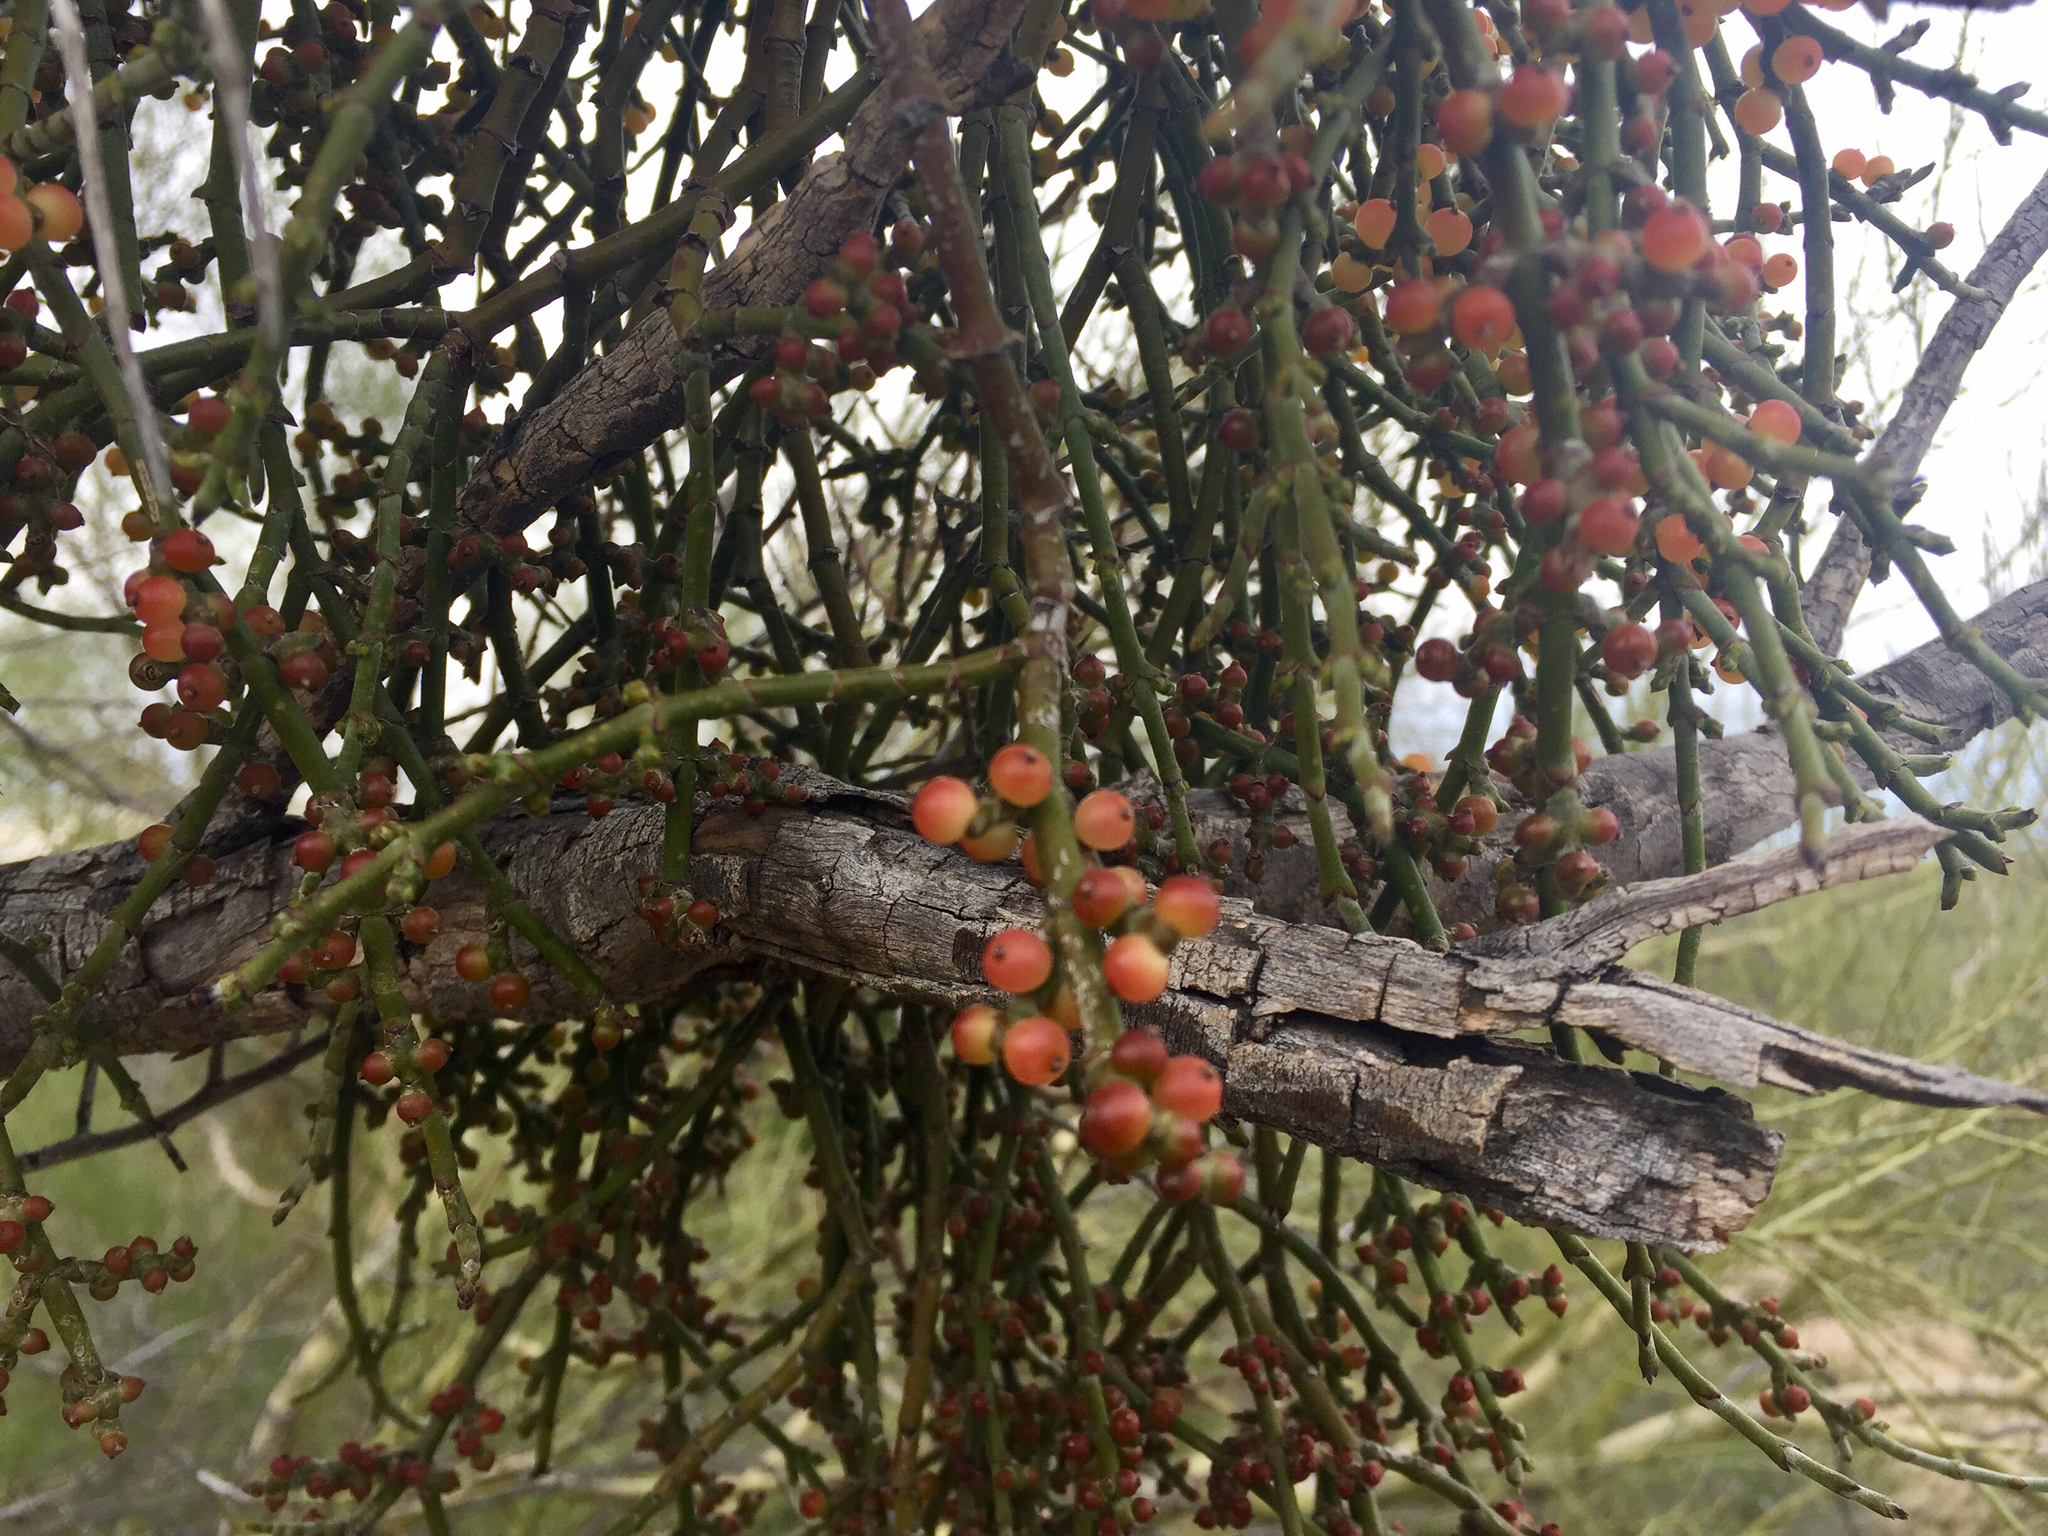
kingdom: Plantae
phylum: Tracheophyta
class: Magnoliopsida
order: Santalales
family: Viscaceae
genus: Phoradendron
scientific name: Phoradendron californicum
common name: Acacia mistletoe
